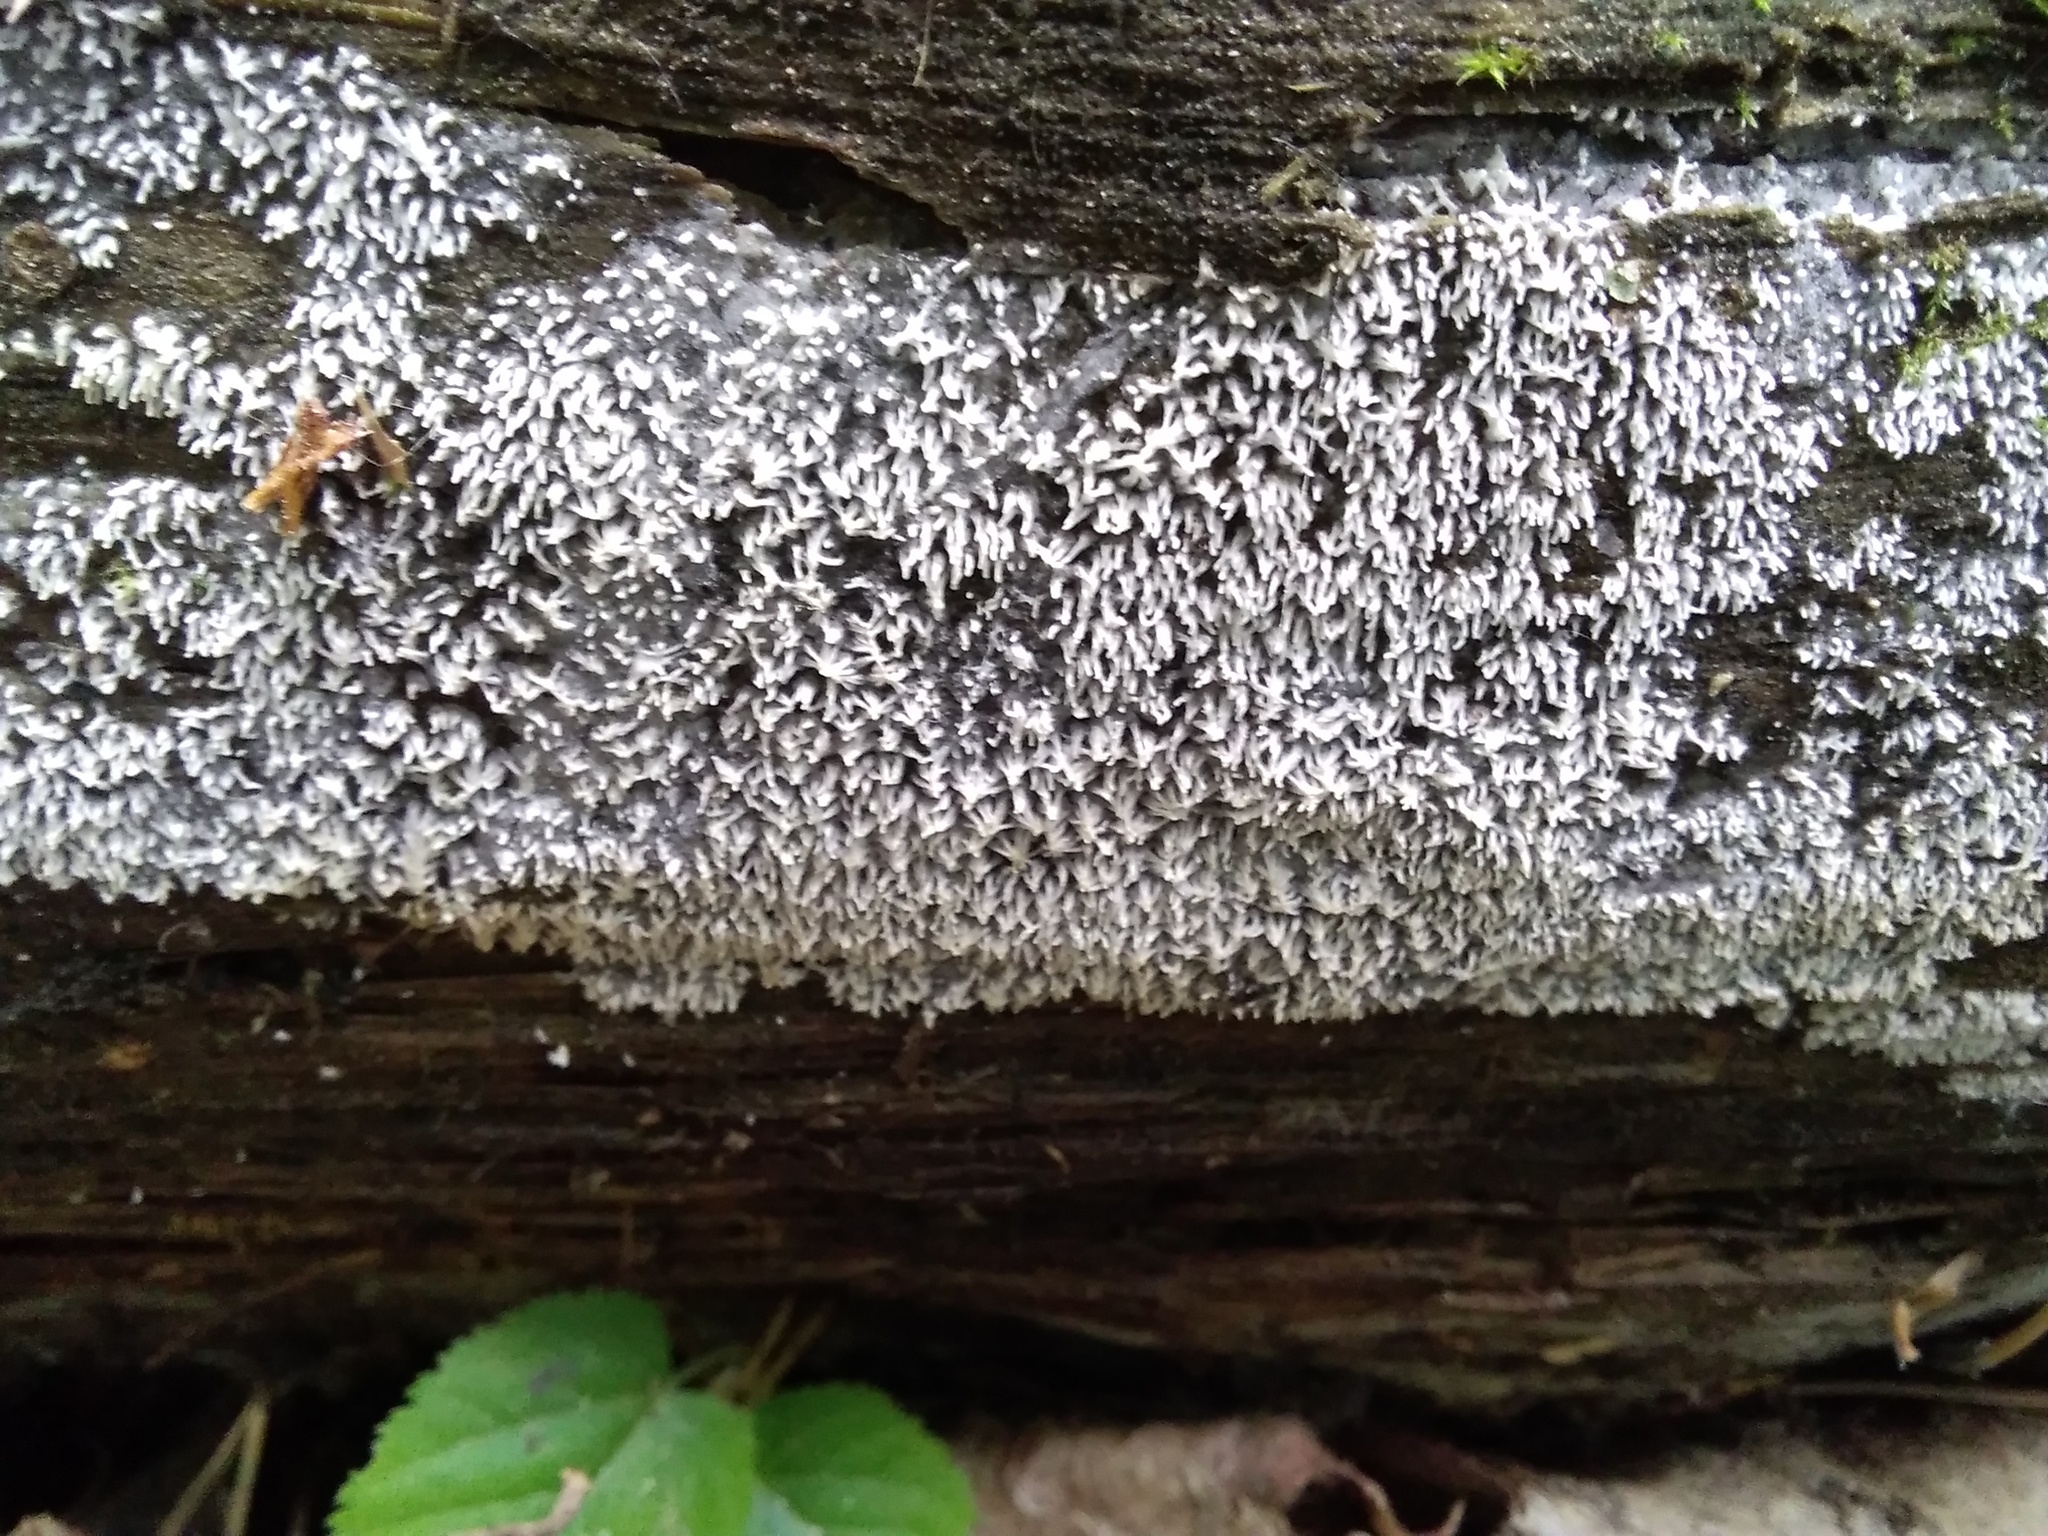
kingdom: Protozoa
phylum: Mycetozoa
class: Protosteliomycetes
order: Ceratiomyxales
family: Ceratiomyxaceae
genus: Ceratiomyxa
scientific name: Ceratiomyxa fruticulosa
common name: Honeycomb coral slime mold
